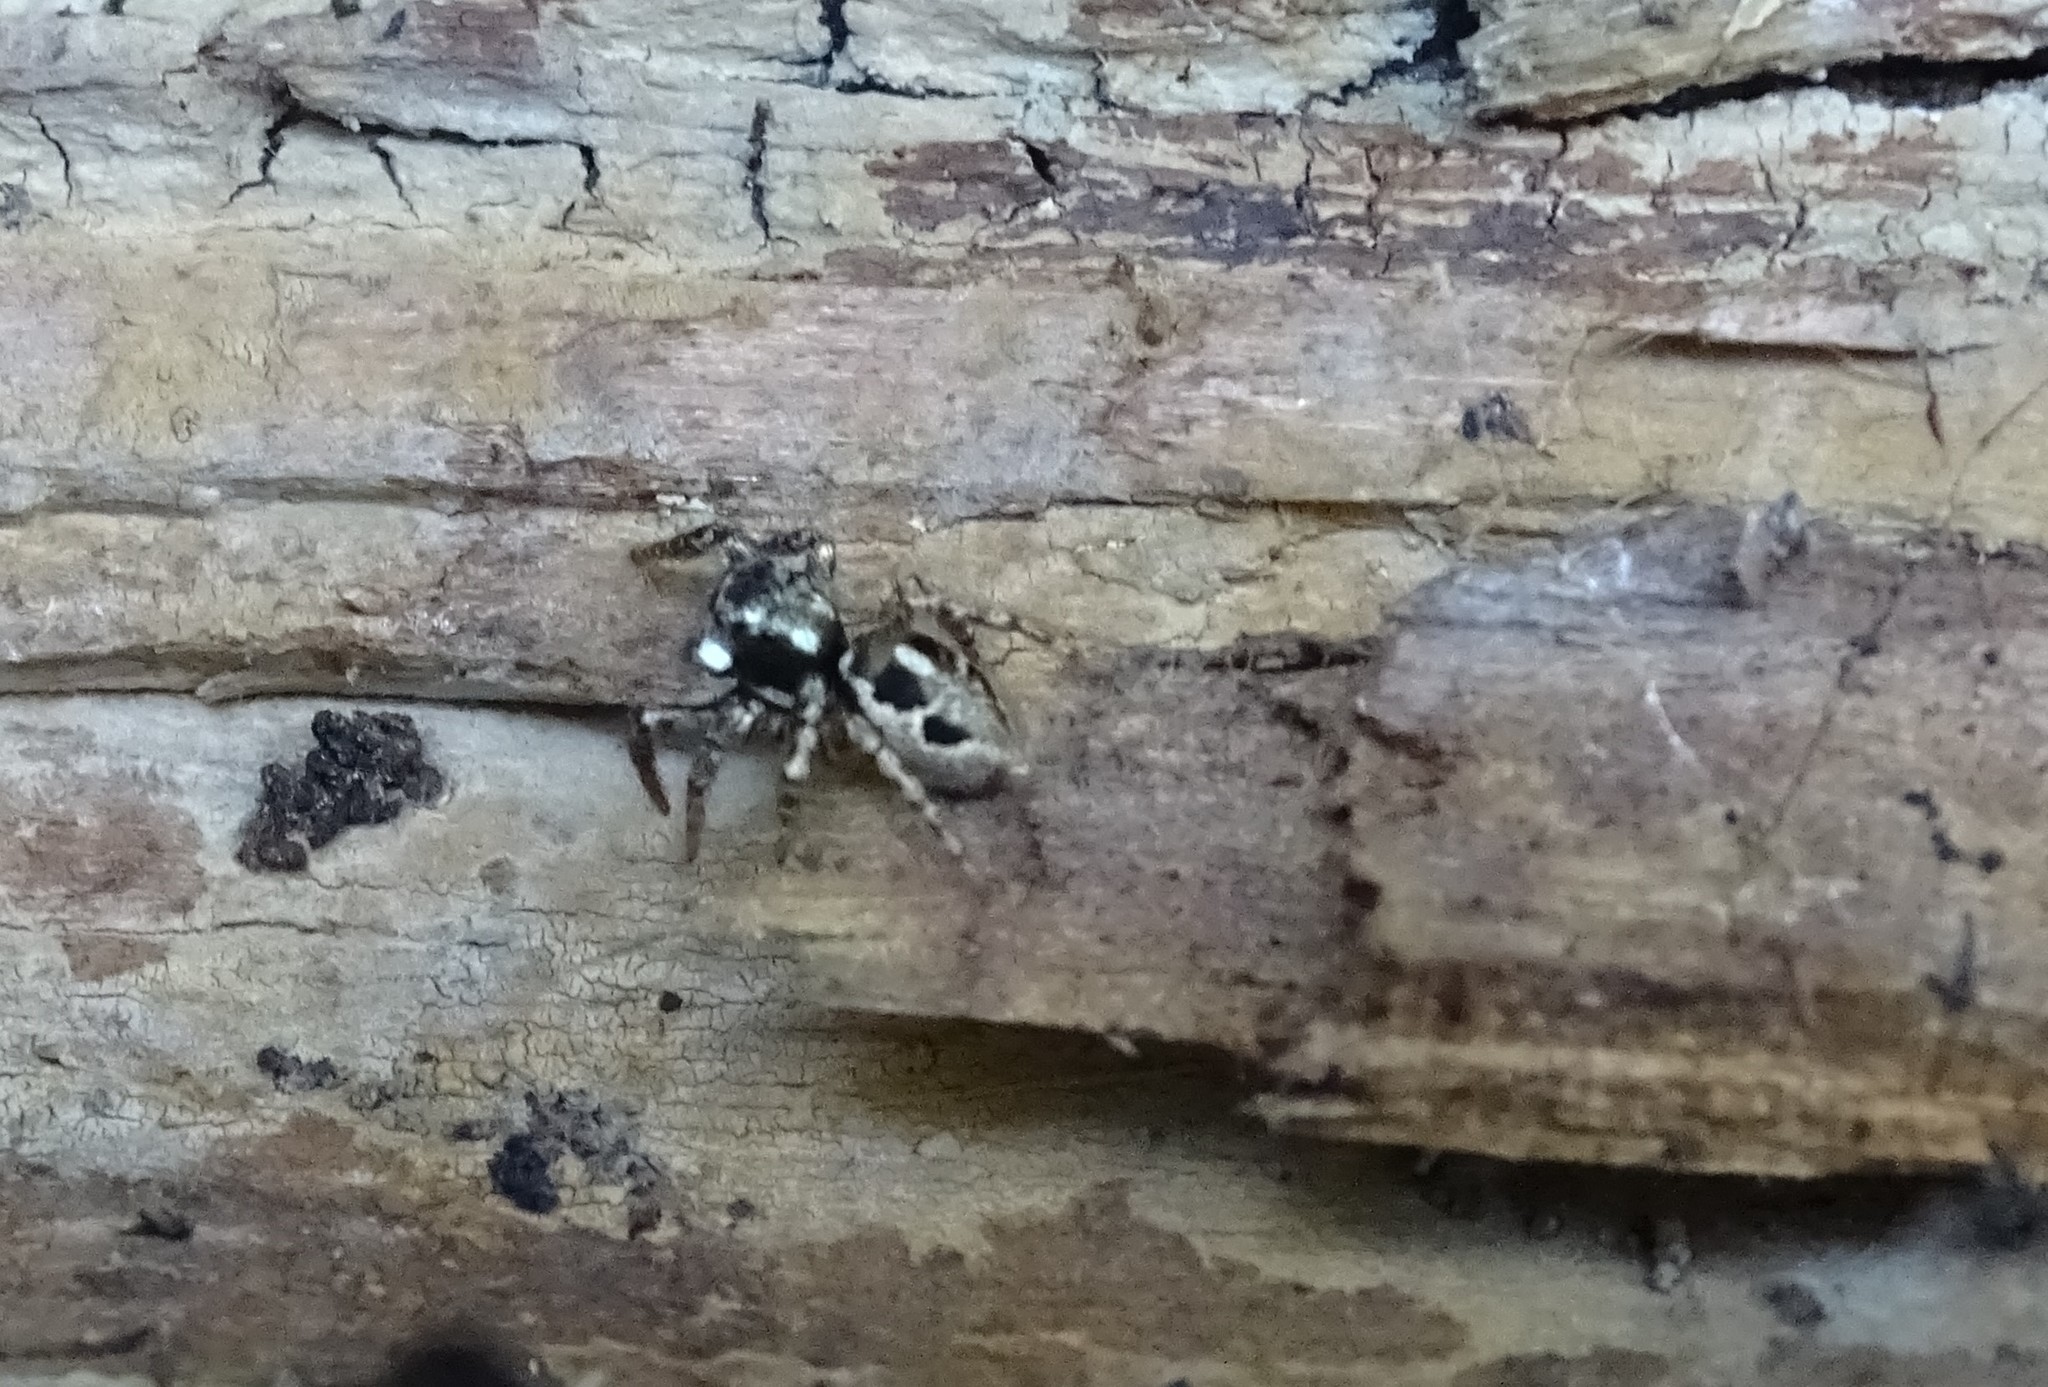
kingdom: Animalia
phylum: Arthropoda
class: Arachnida
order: Araneae
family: Salticidae
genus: Anasaitis
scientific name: Anasaitis canosa
